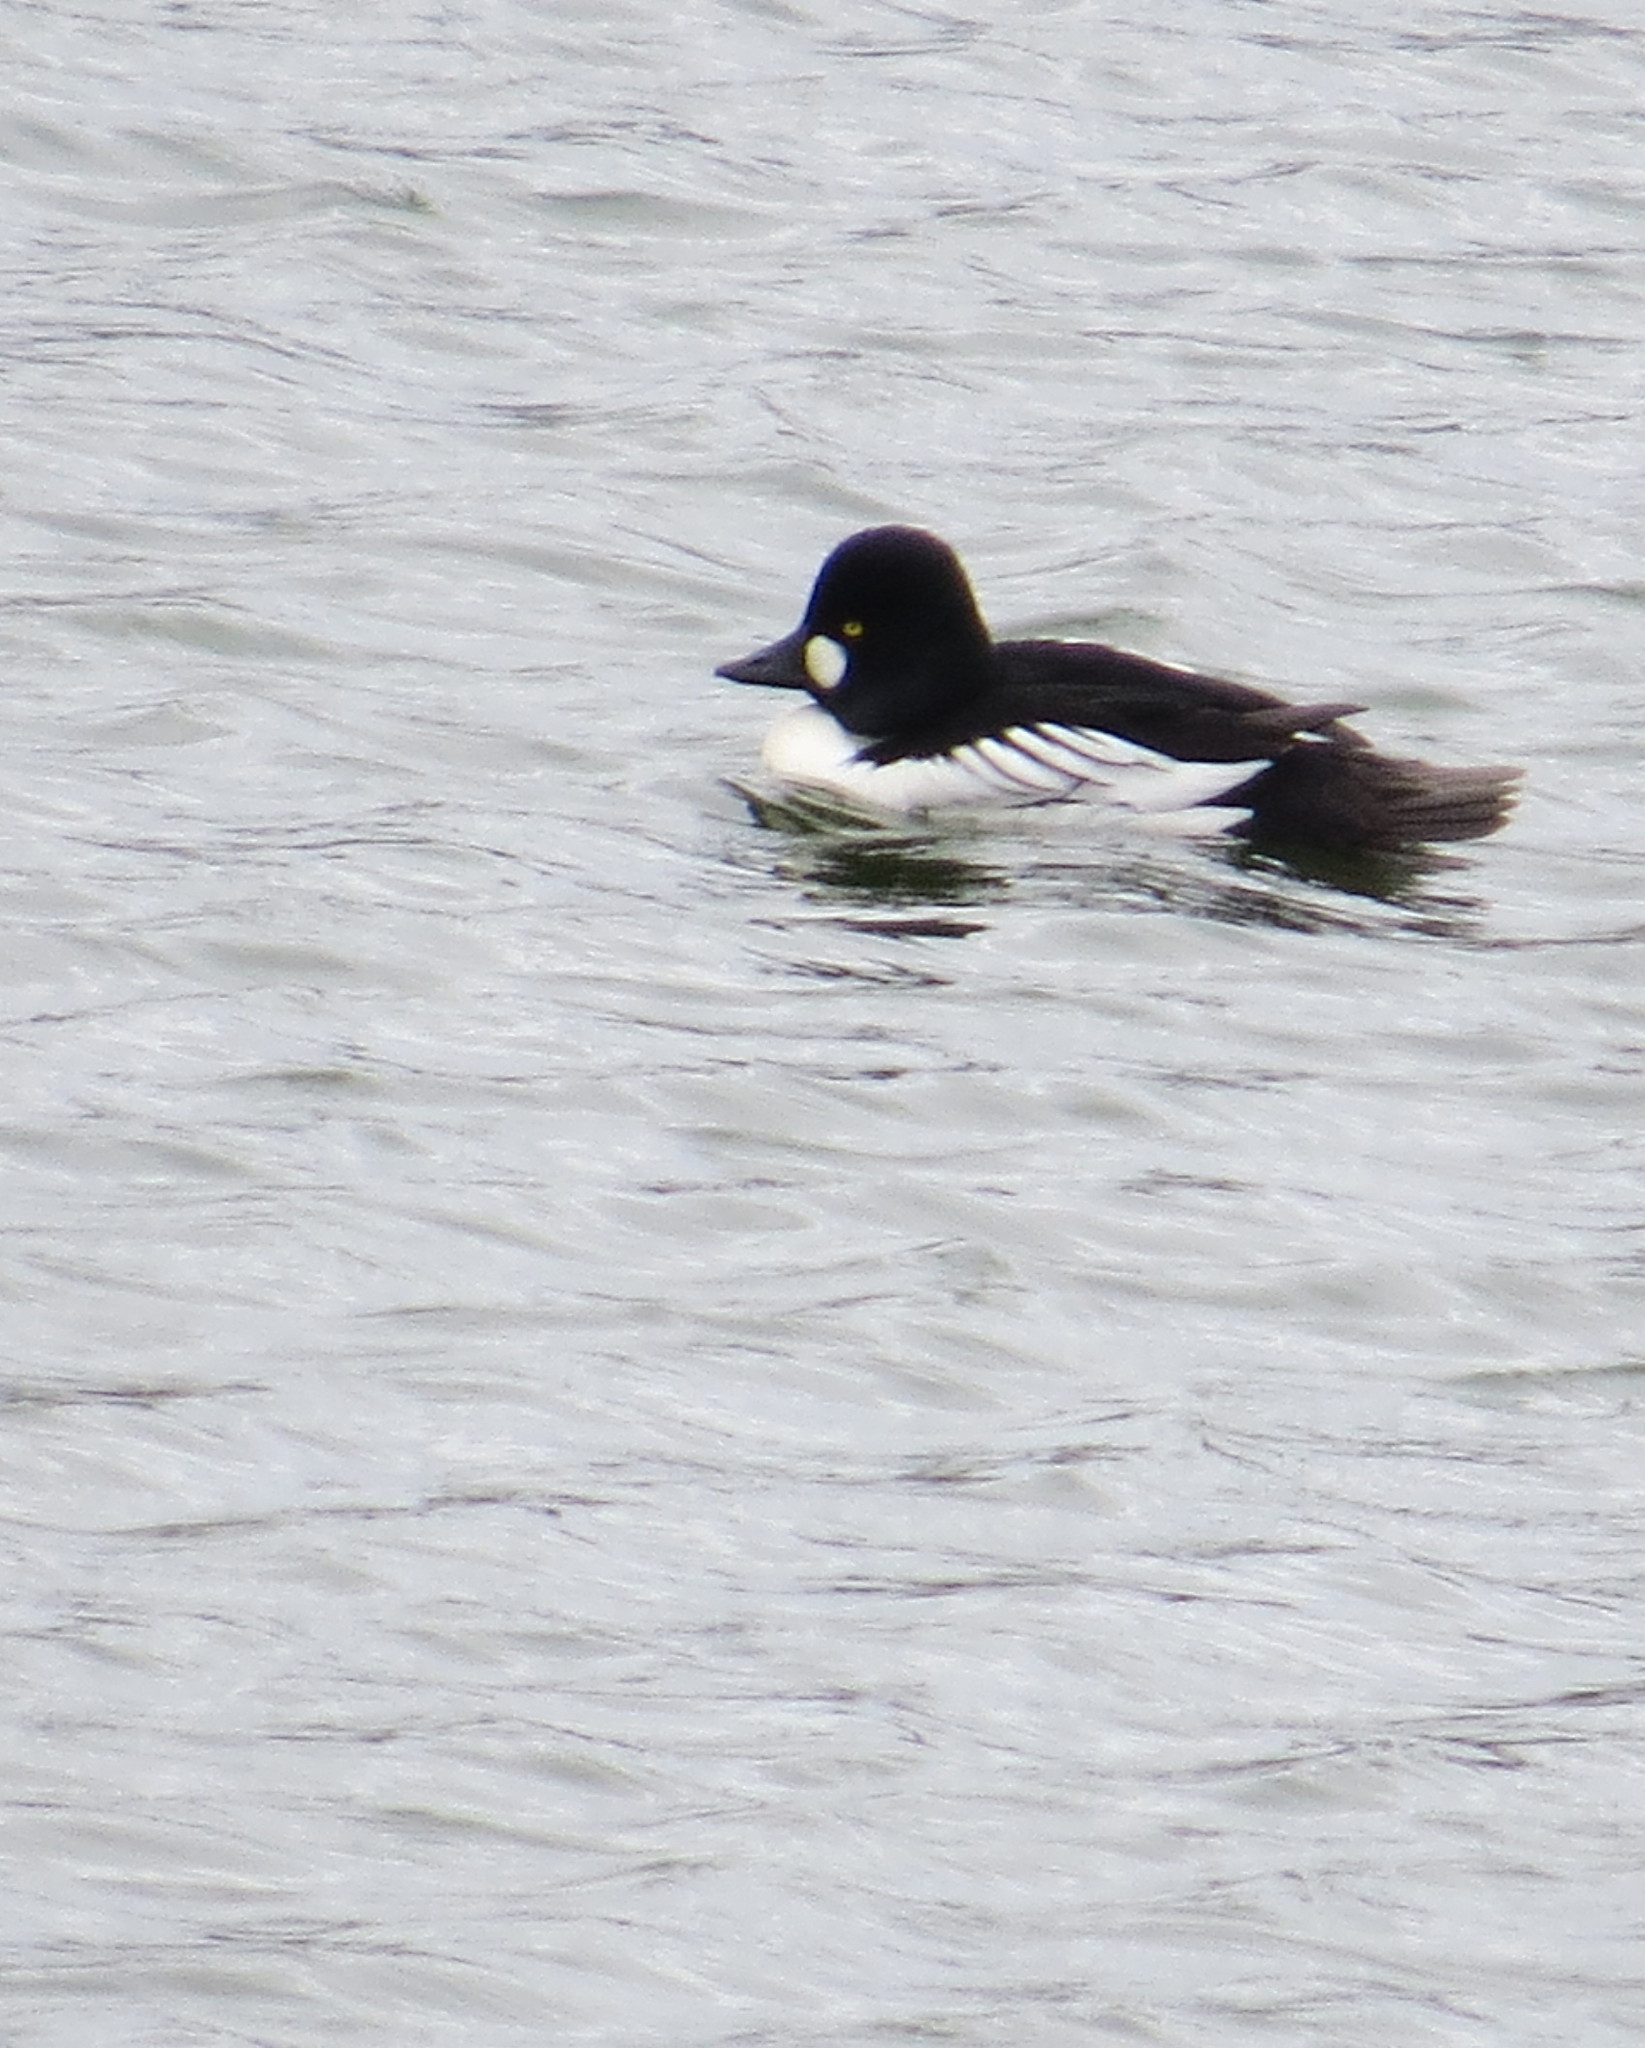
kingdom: Animalia
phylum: Chordata
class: Aves
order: Anseriformes
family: Anatidae
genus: Bucephala
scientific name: Bucephala clangula
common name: Common goldeneye
